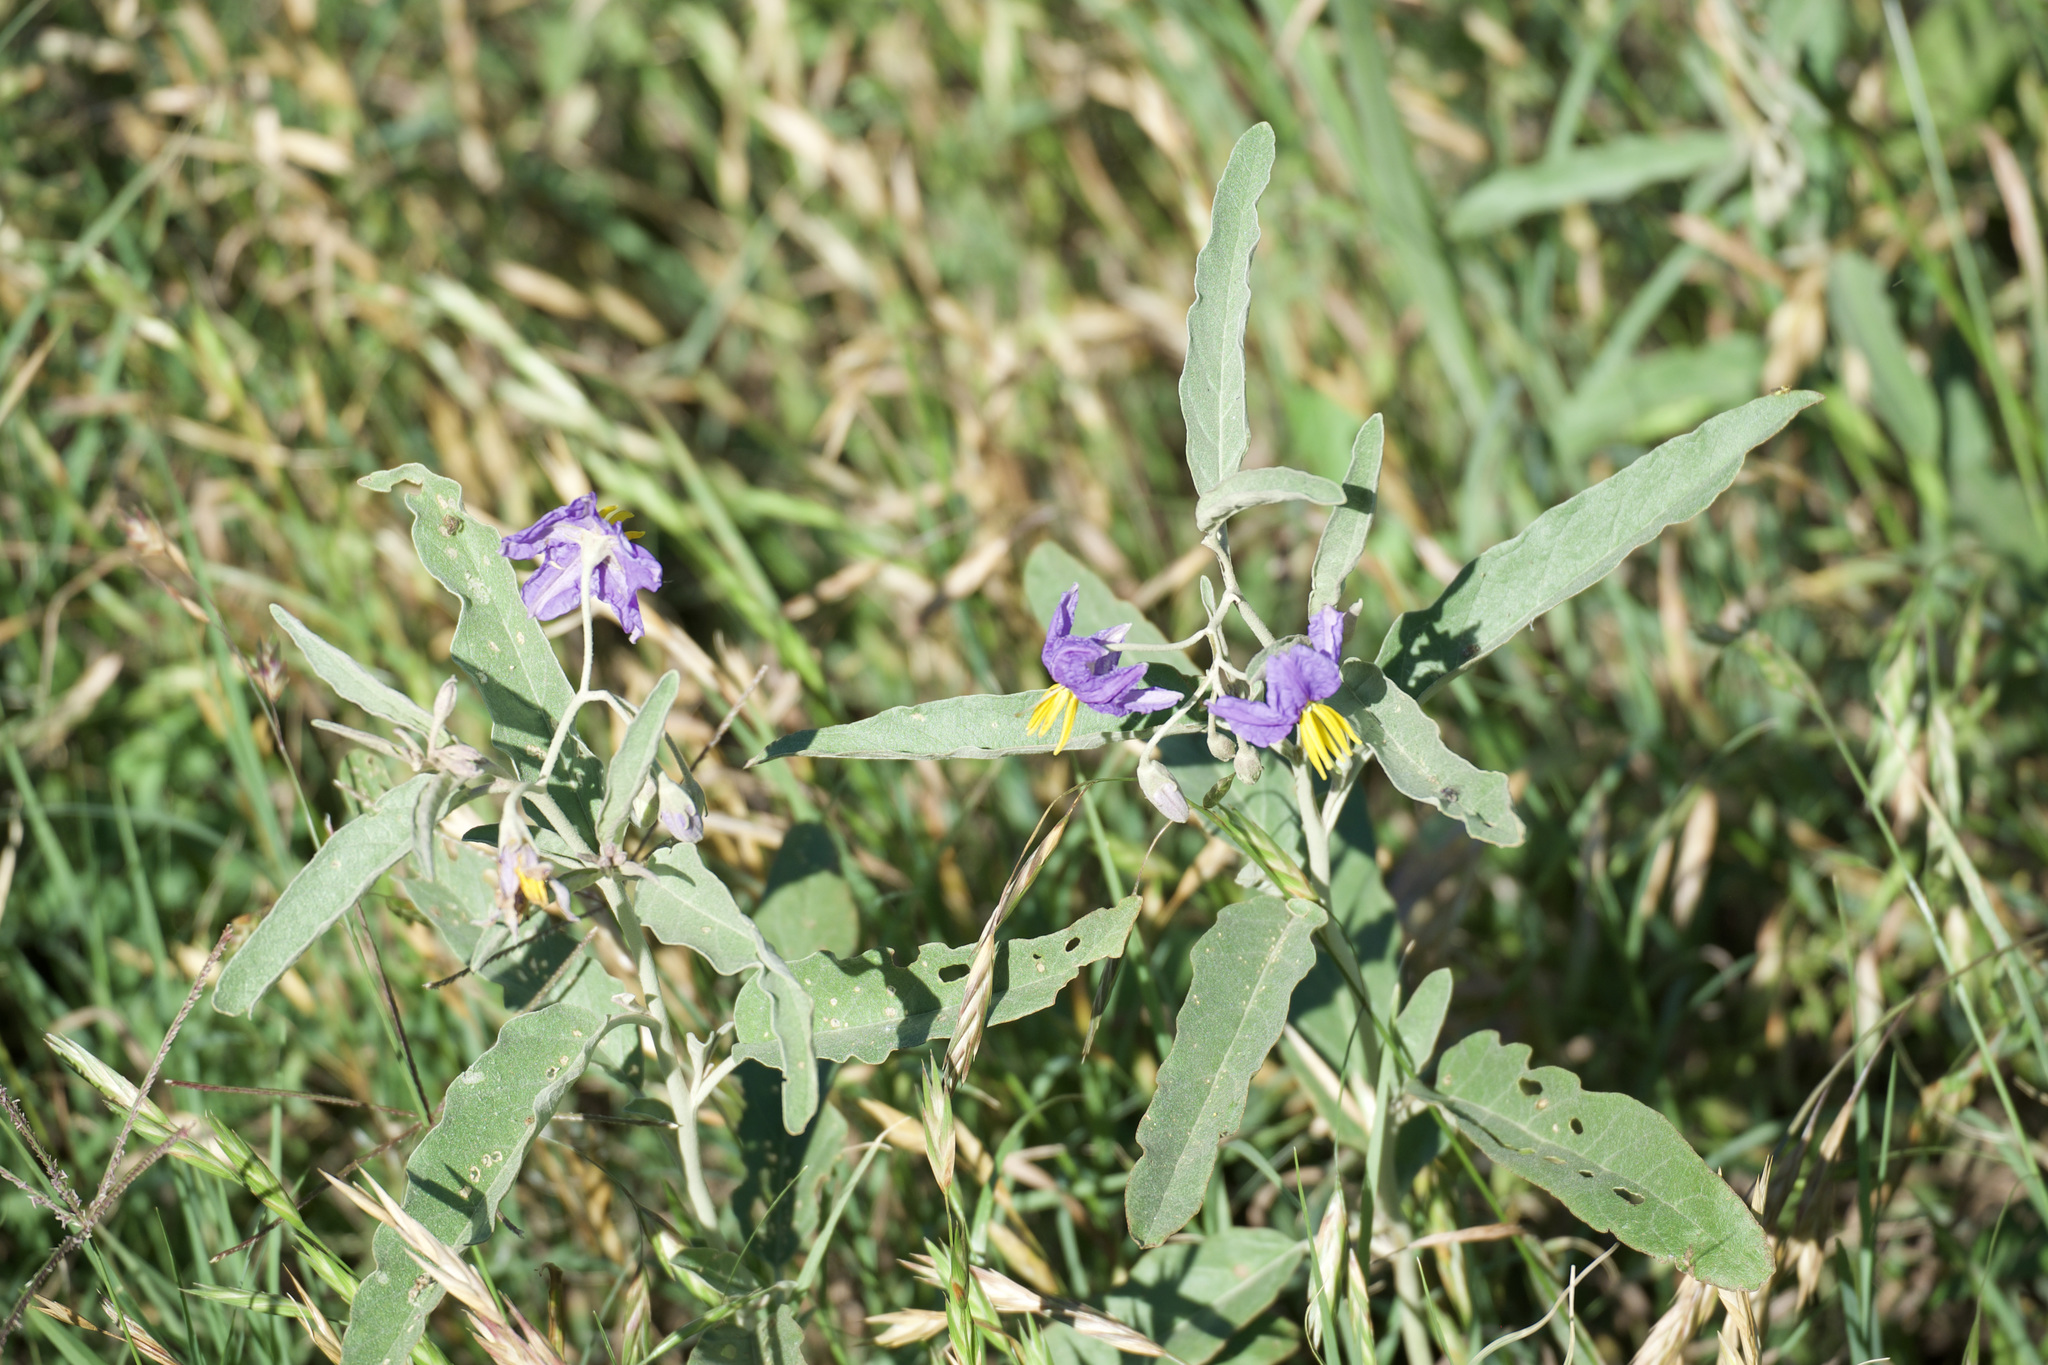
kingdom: Plantae
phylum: Tracheophyta
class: Magnoliopsida
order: Solanales
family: Solanaceae
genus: Solanum
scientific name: Solanum elaeagnifolium
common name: Silverleaf nightshade
